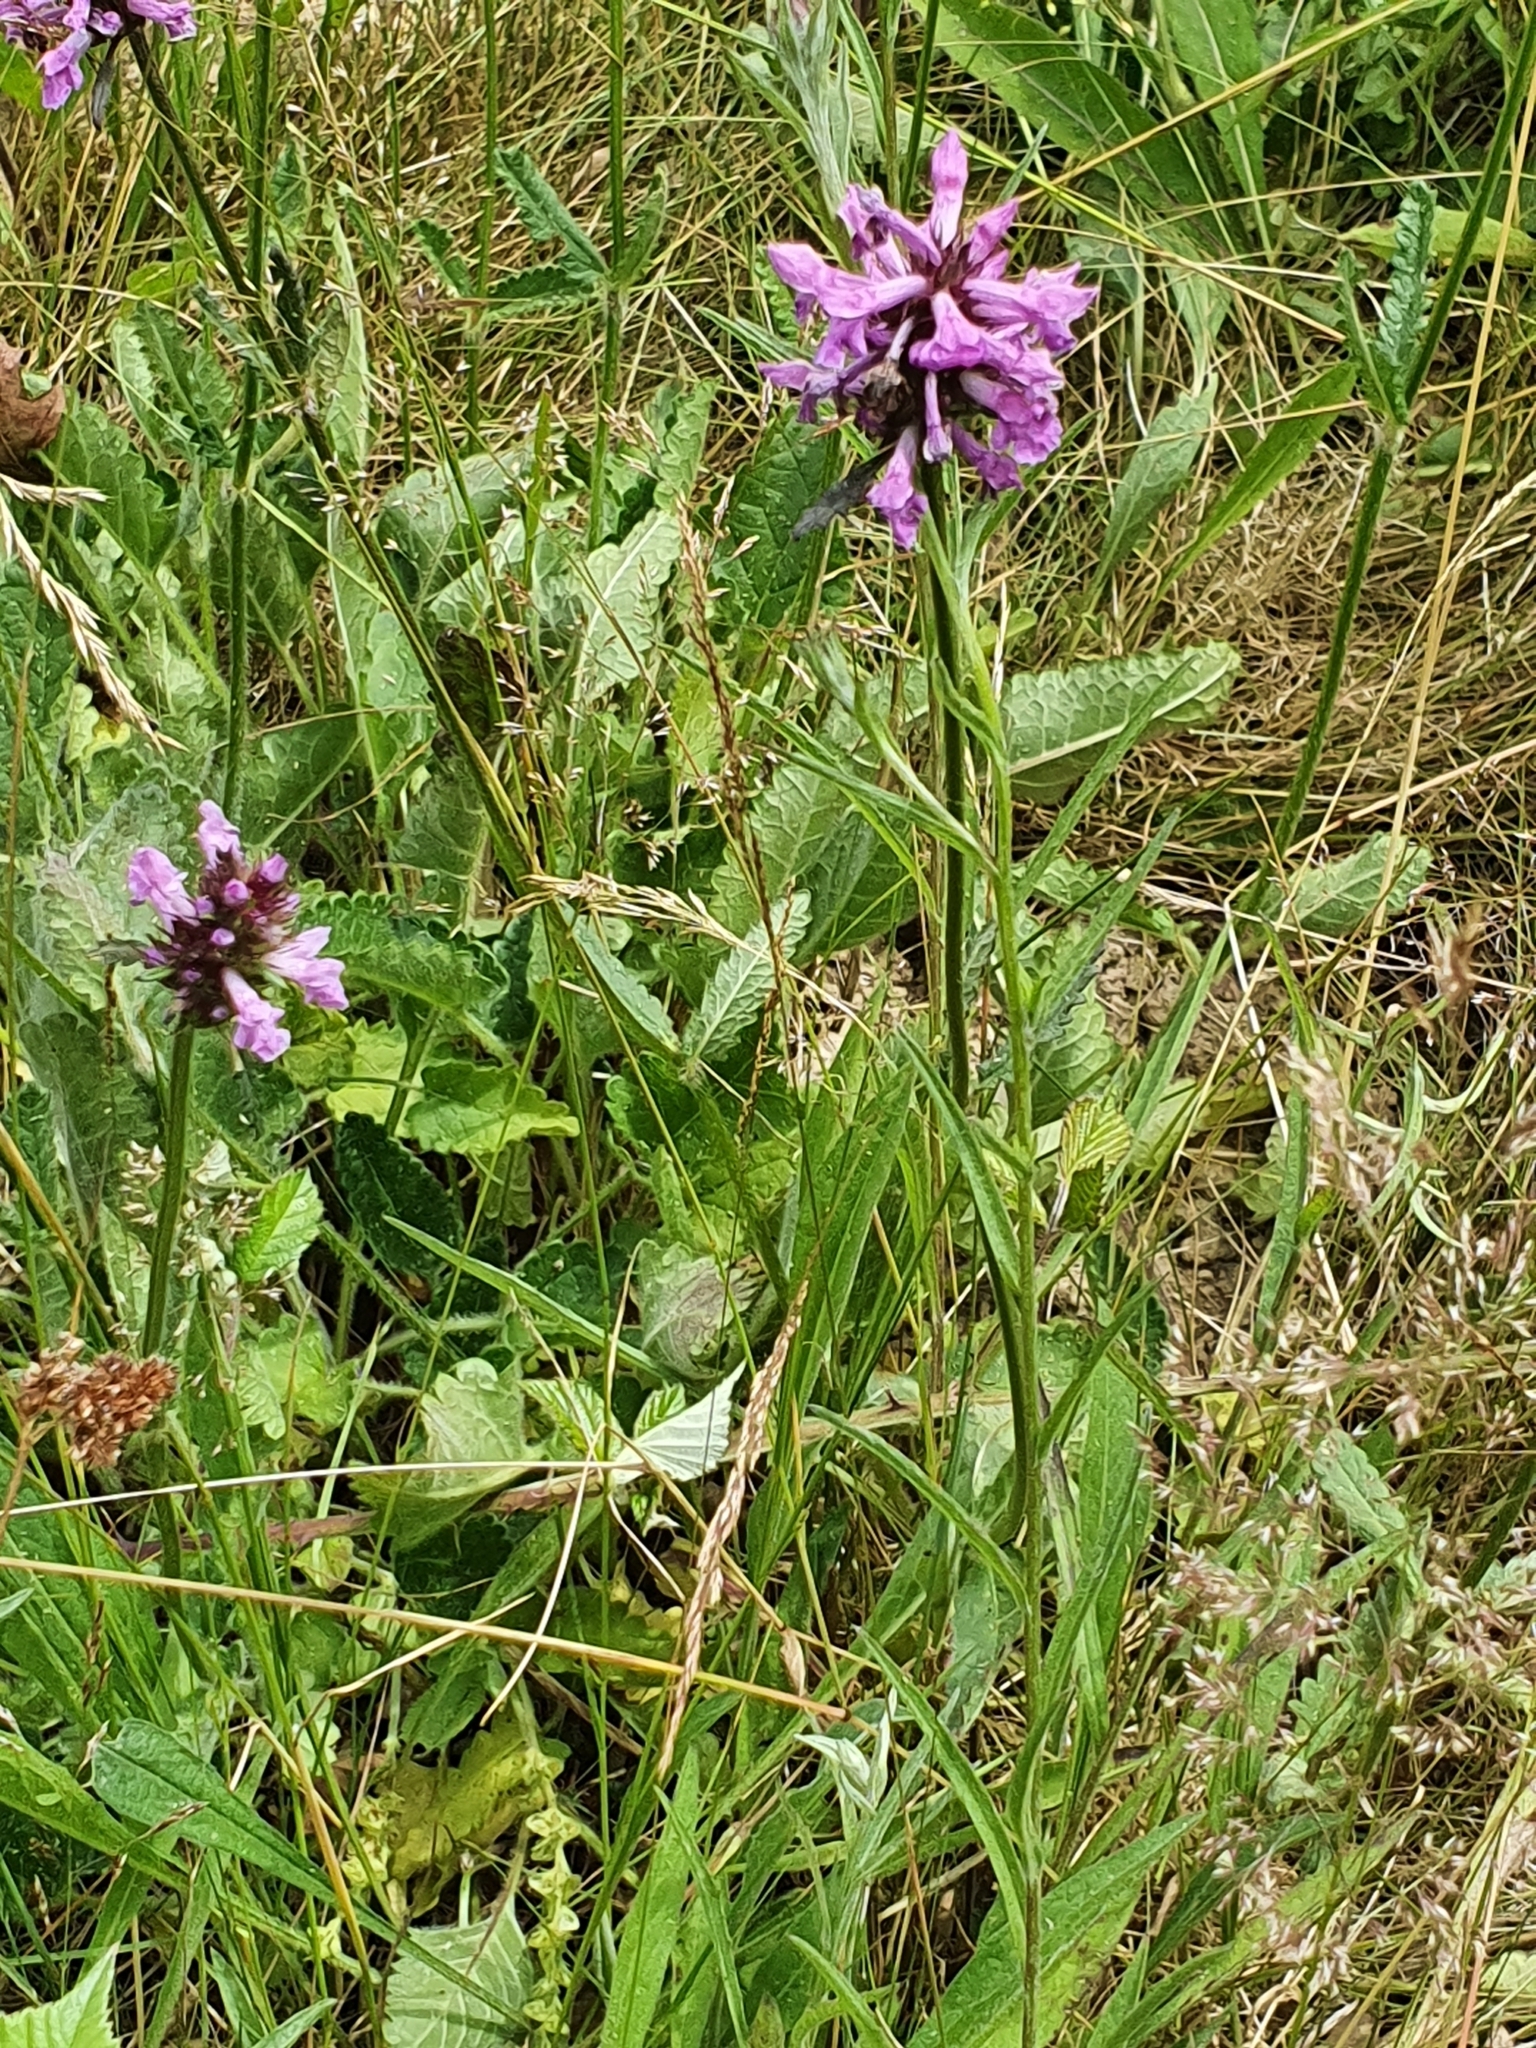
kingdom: Plantae
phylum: Tracheophyta
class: Magnoliopsida
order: Lamiales
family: Lamiaceae
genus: Betonica
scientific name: Betonica officinalis
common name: Bishop's-wort
